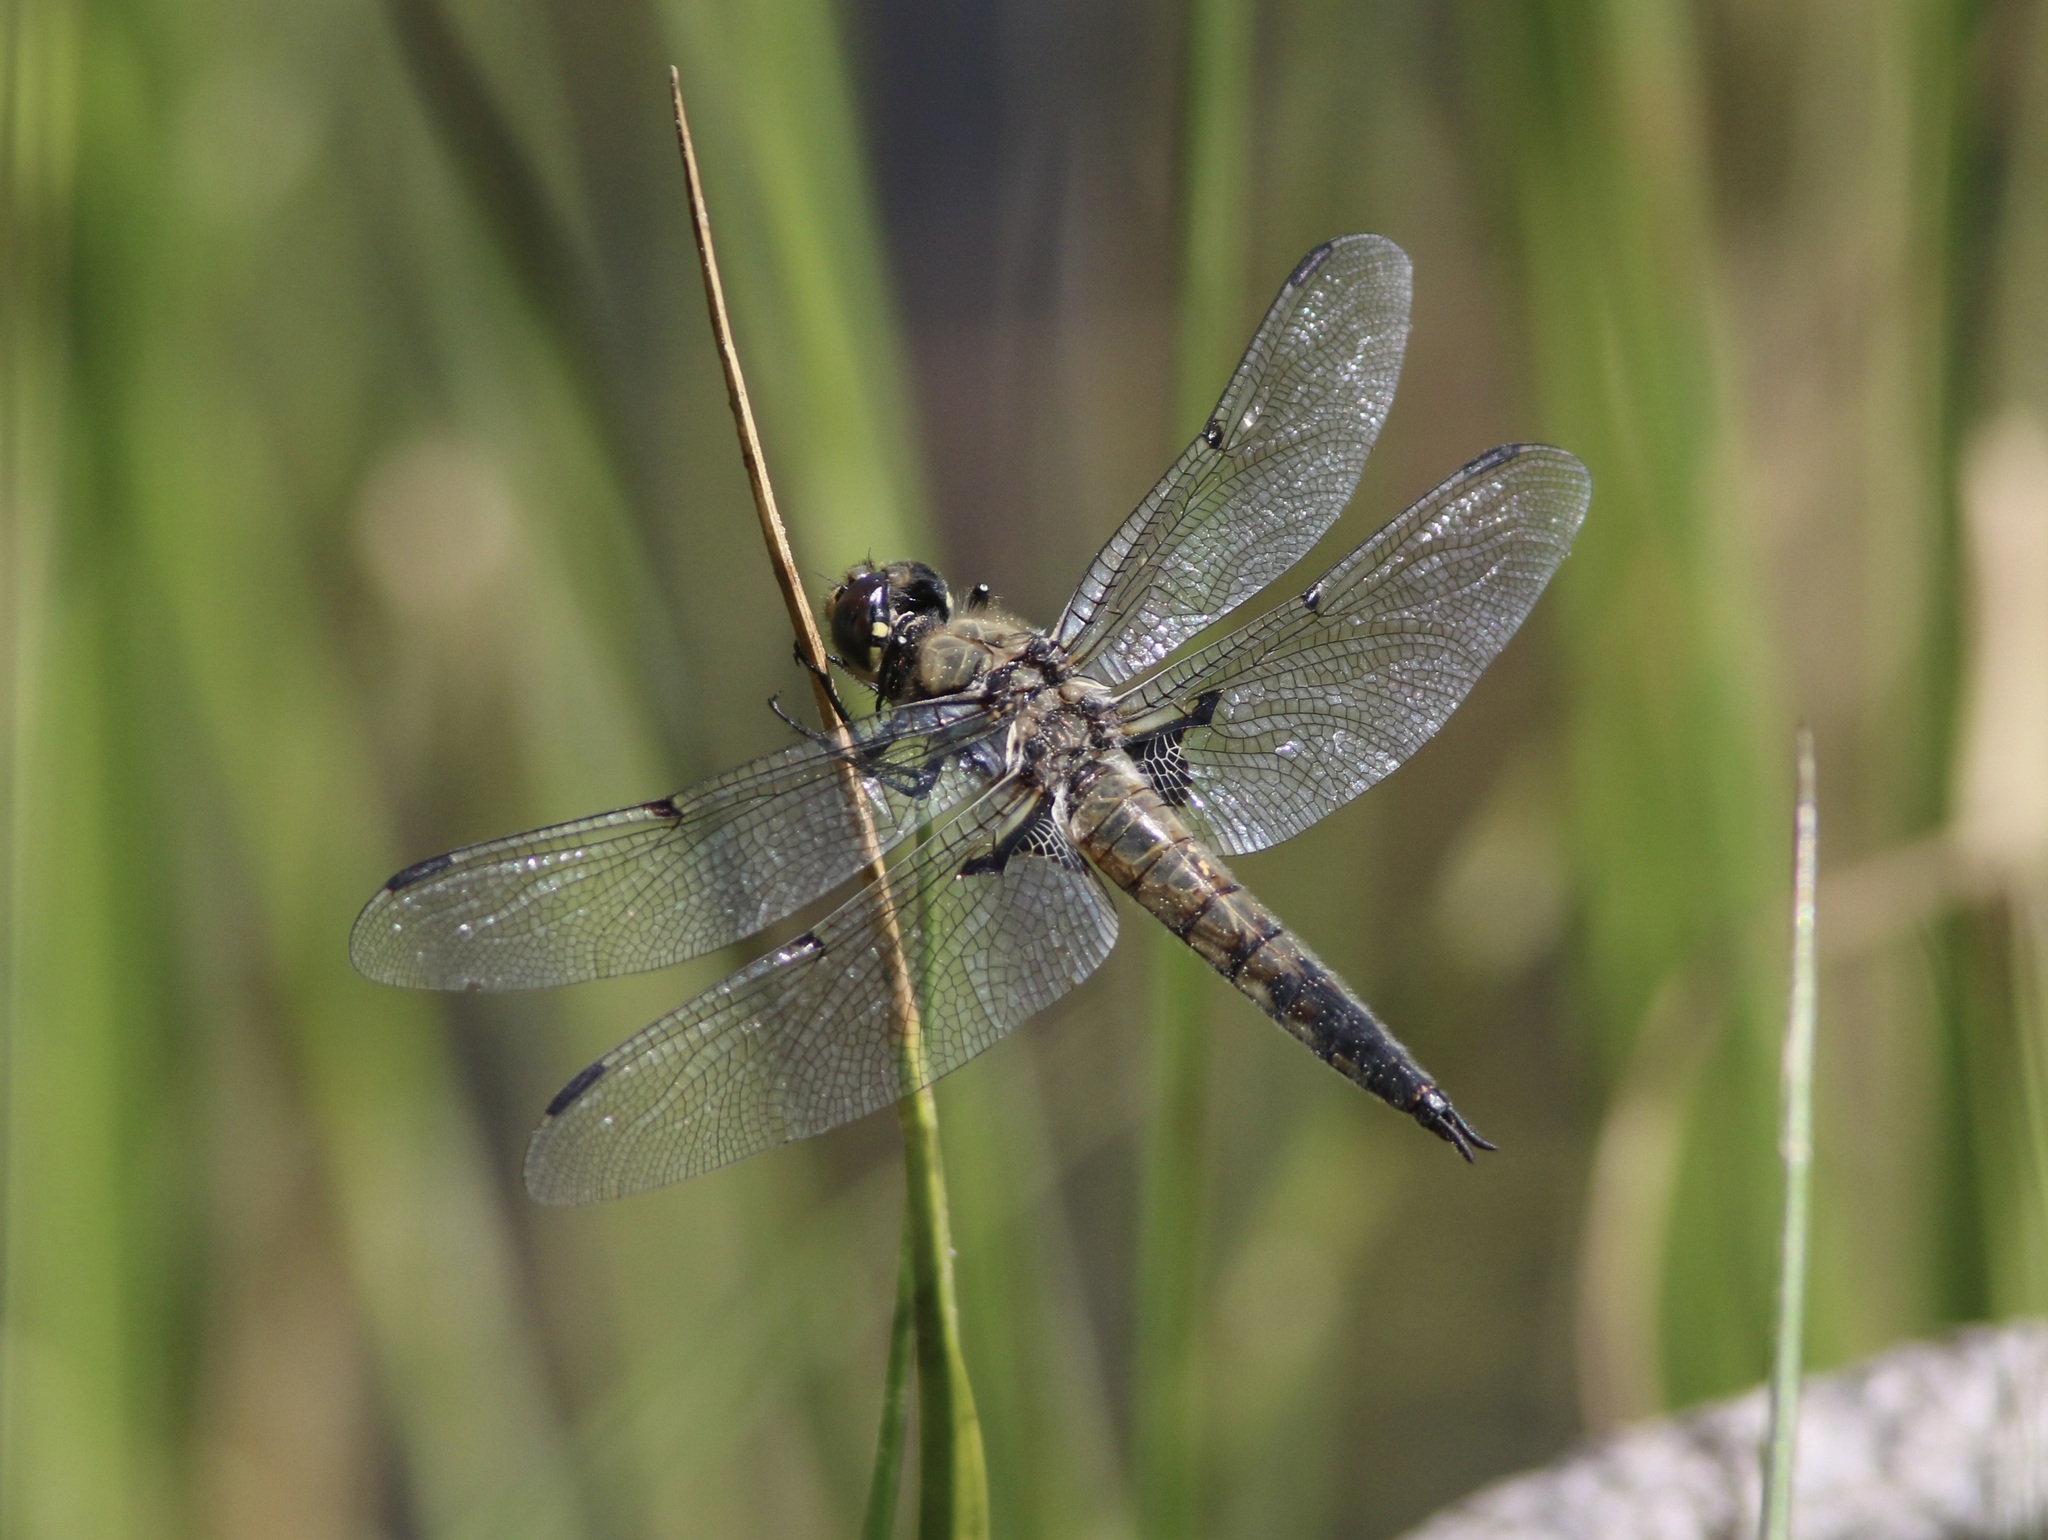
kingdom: Animalia
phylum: Arthropoda
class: Insecta
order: Odonata
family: Libellulidae
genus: Libellula
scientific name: Libellula quadrimaculata
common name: Four-spotted chaser
